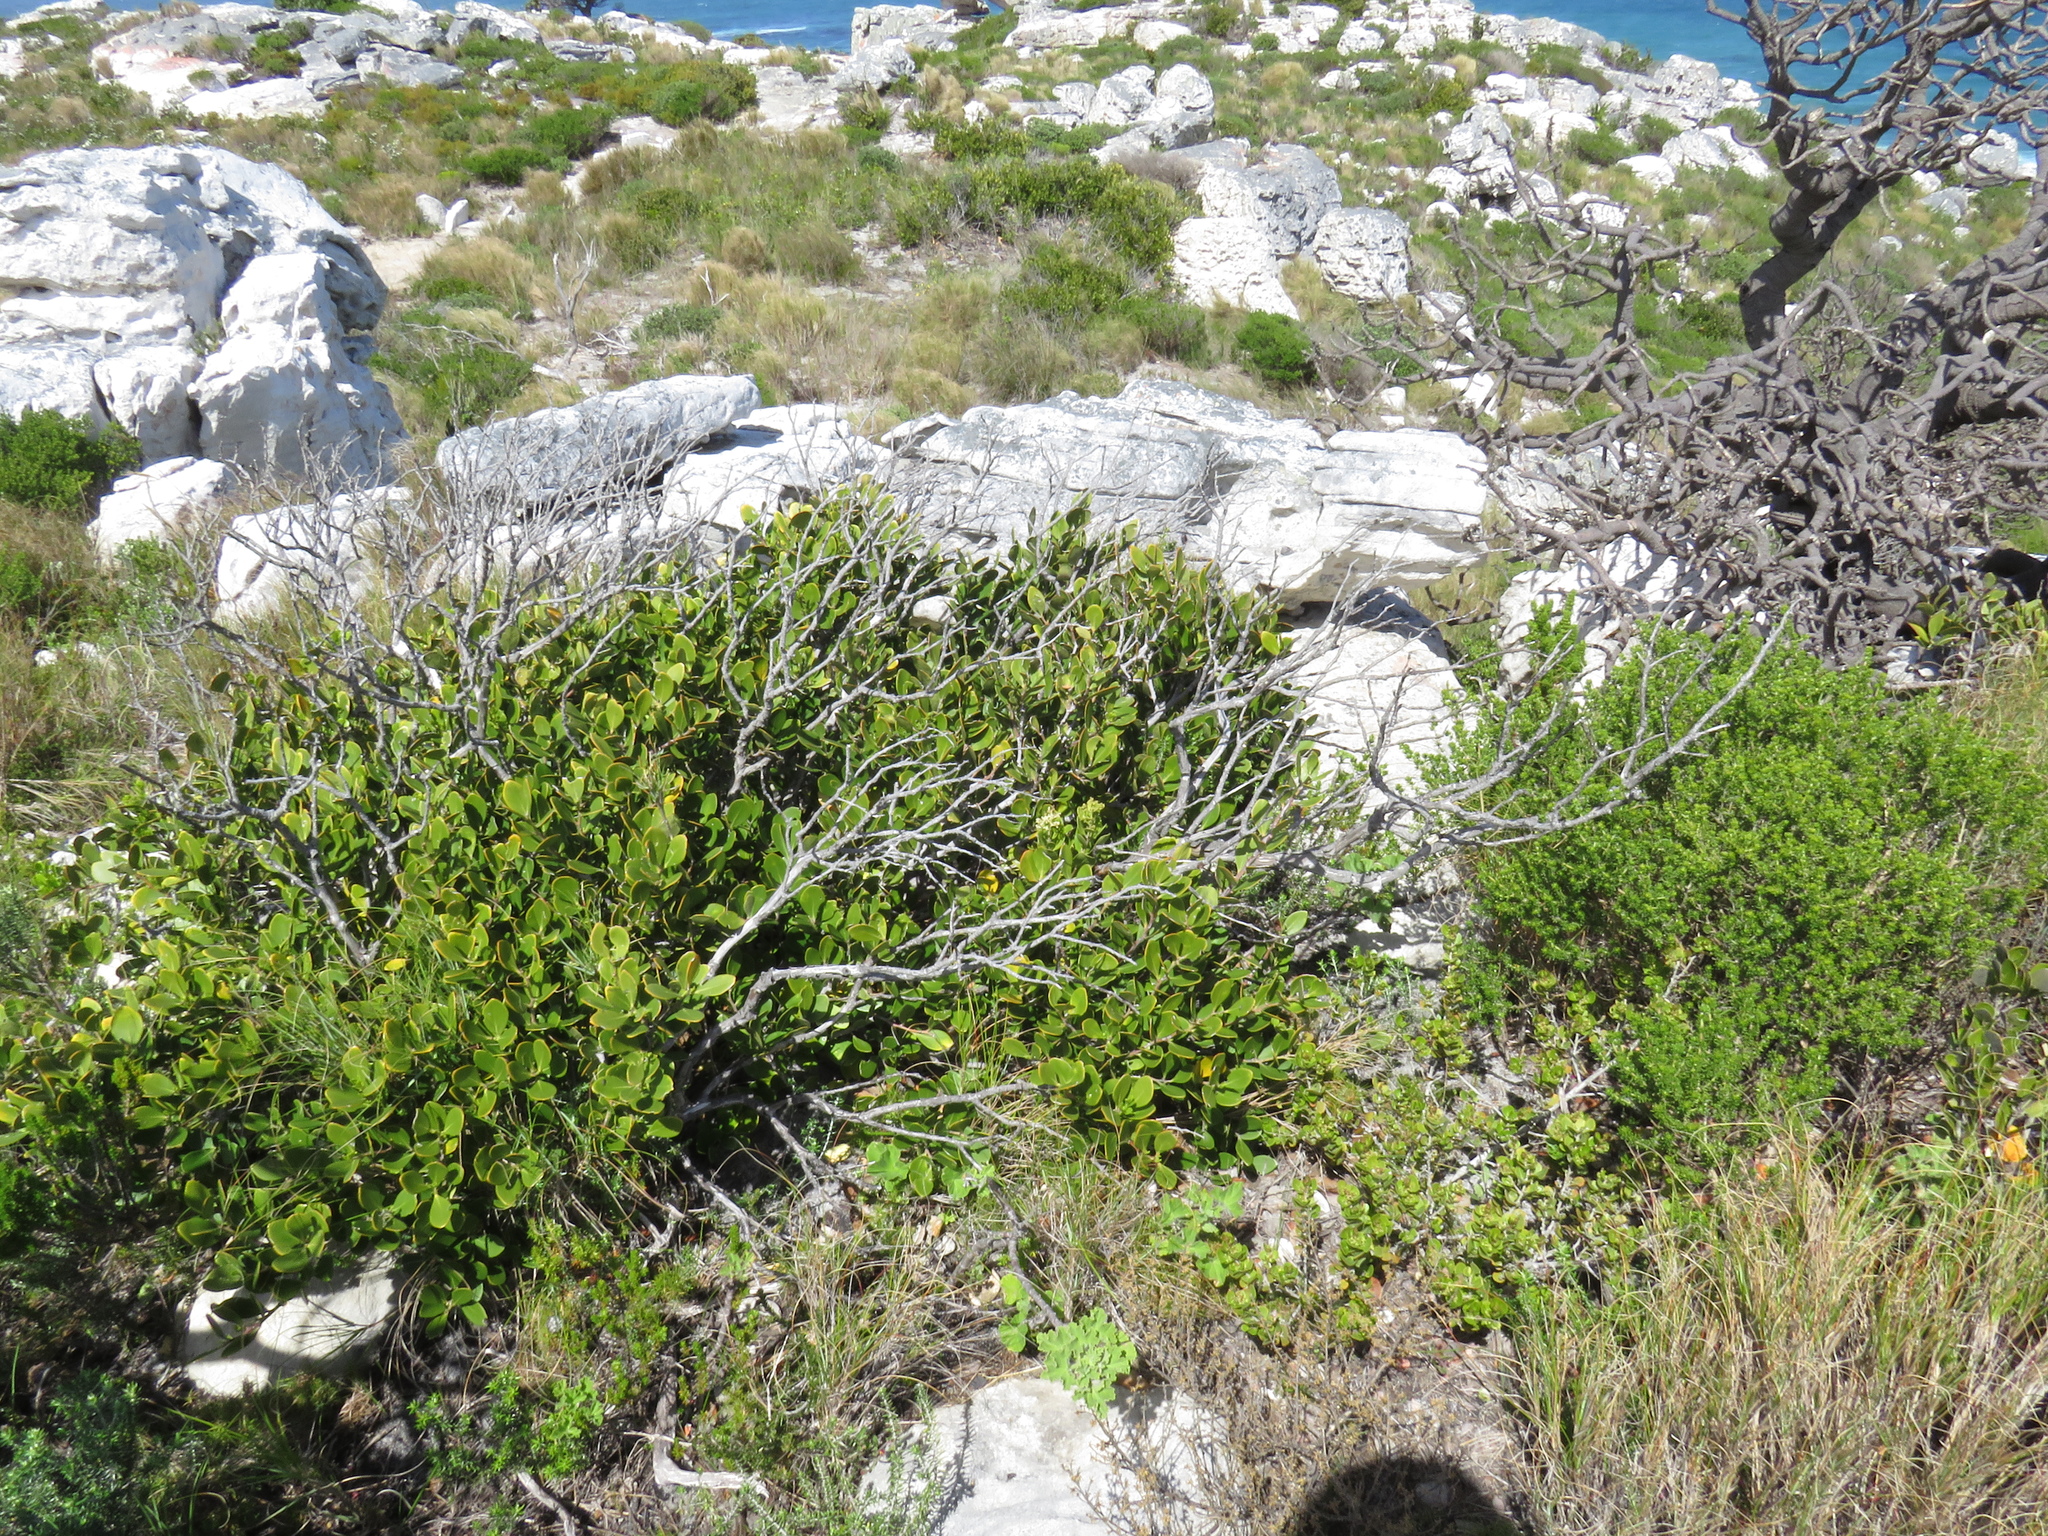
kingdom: Plantae
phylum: Tracheophyta
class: Magnoliopsida
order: Lamiales
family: Oleaceae
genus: Olea
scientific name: Olea capensis
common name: Black ironwood
